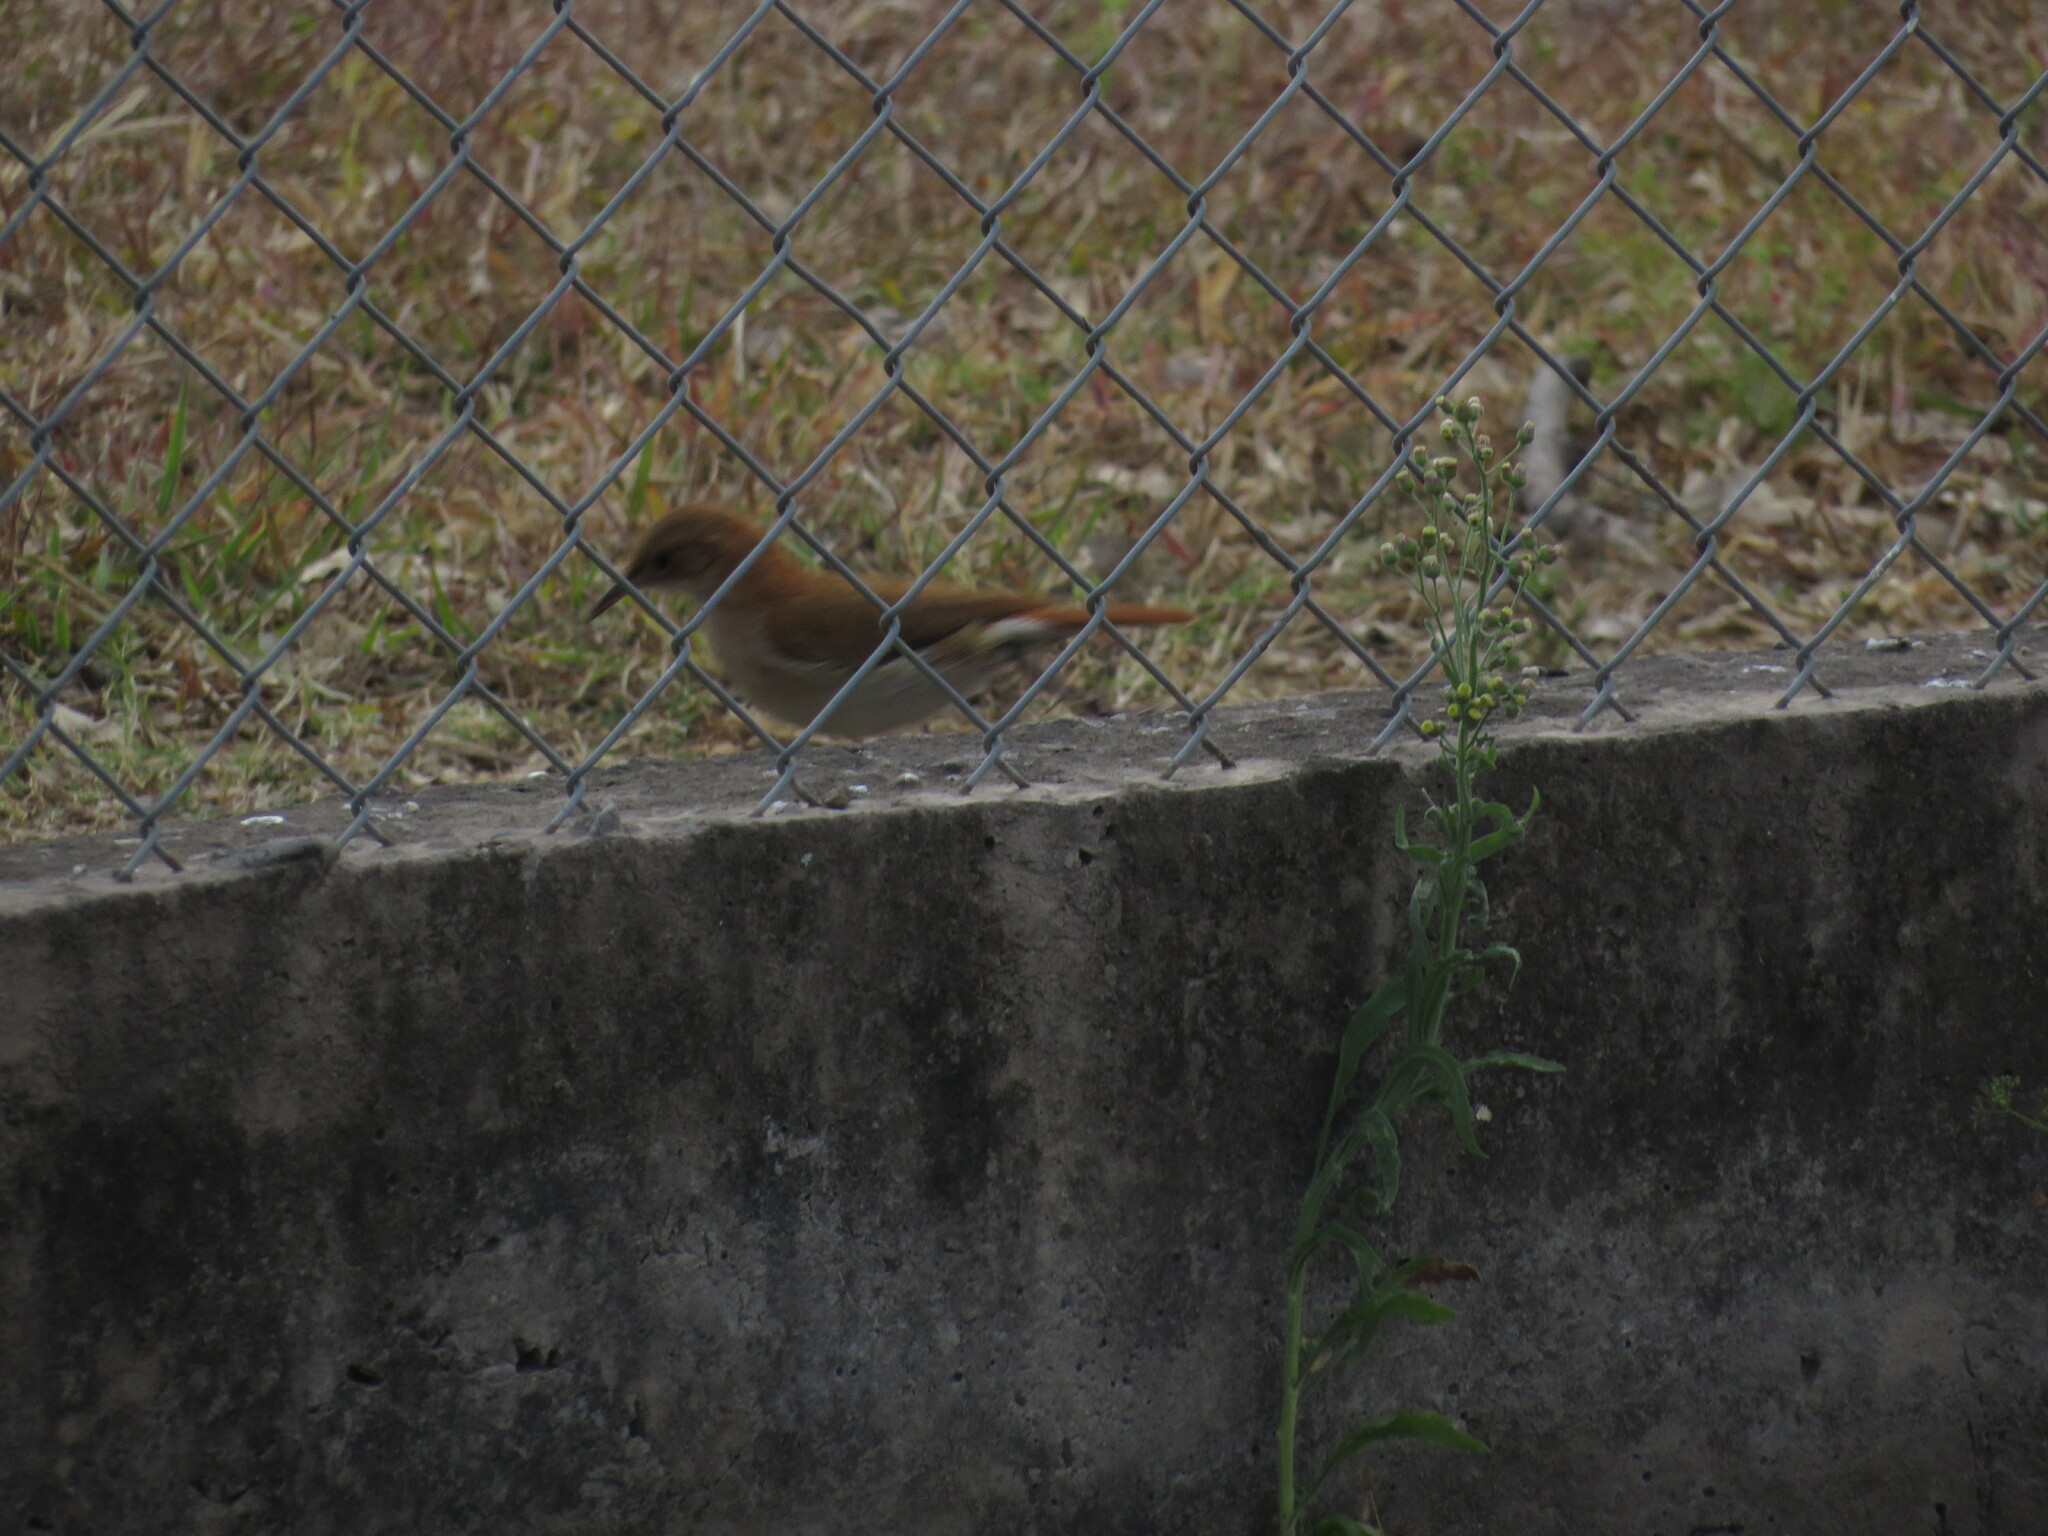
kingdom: Animalia
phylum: Chordata
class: Aves
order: Passeriformes
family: Furnariidae
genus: Furnarius
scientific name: Furnarius rufus
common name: Rufous hornero
